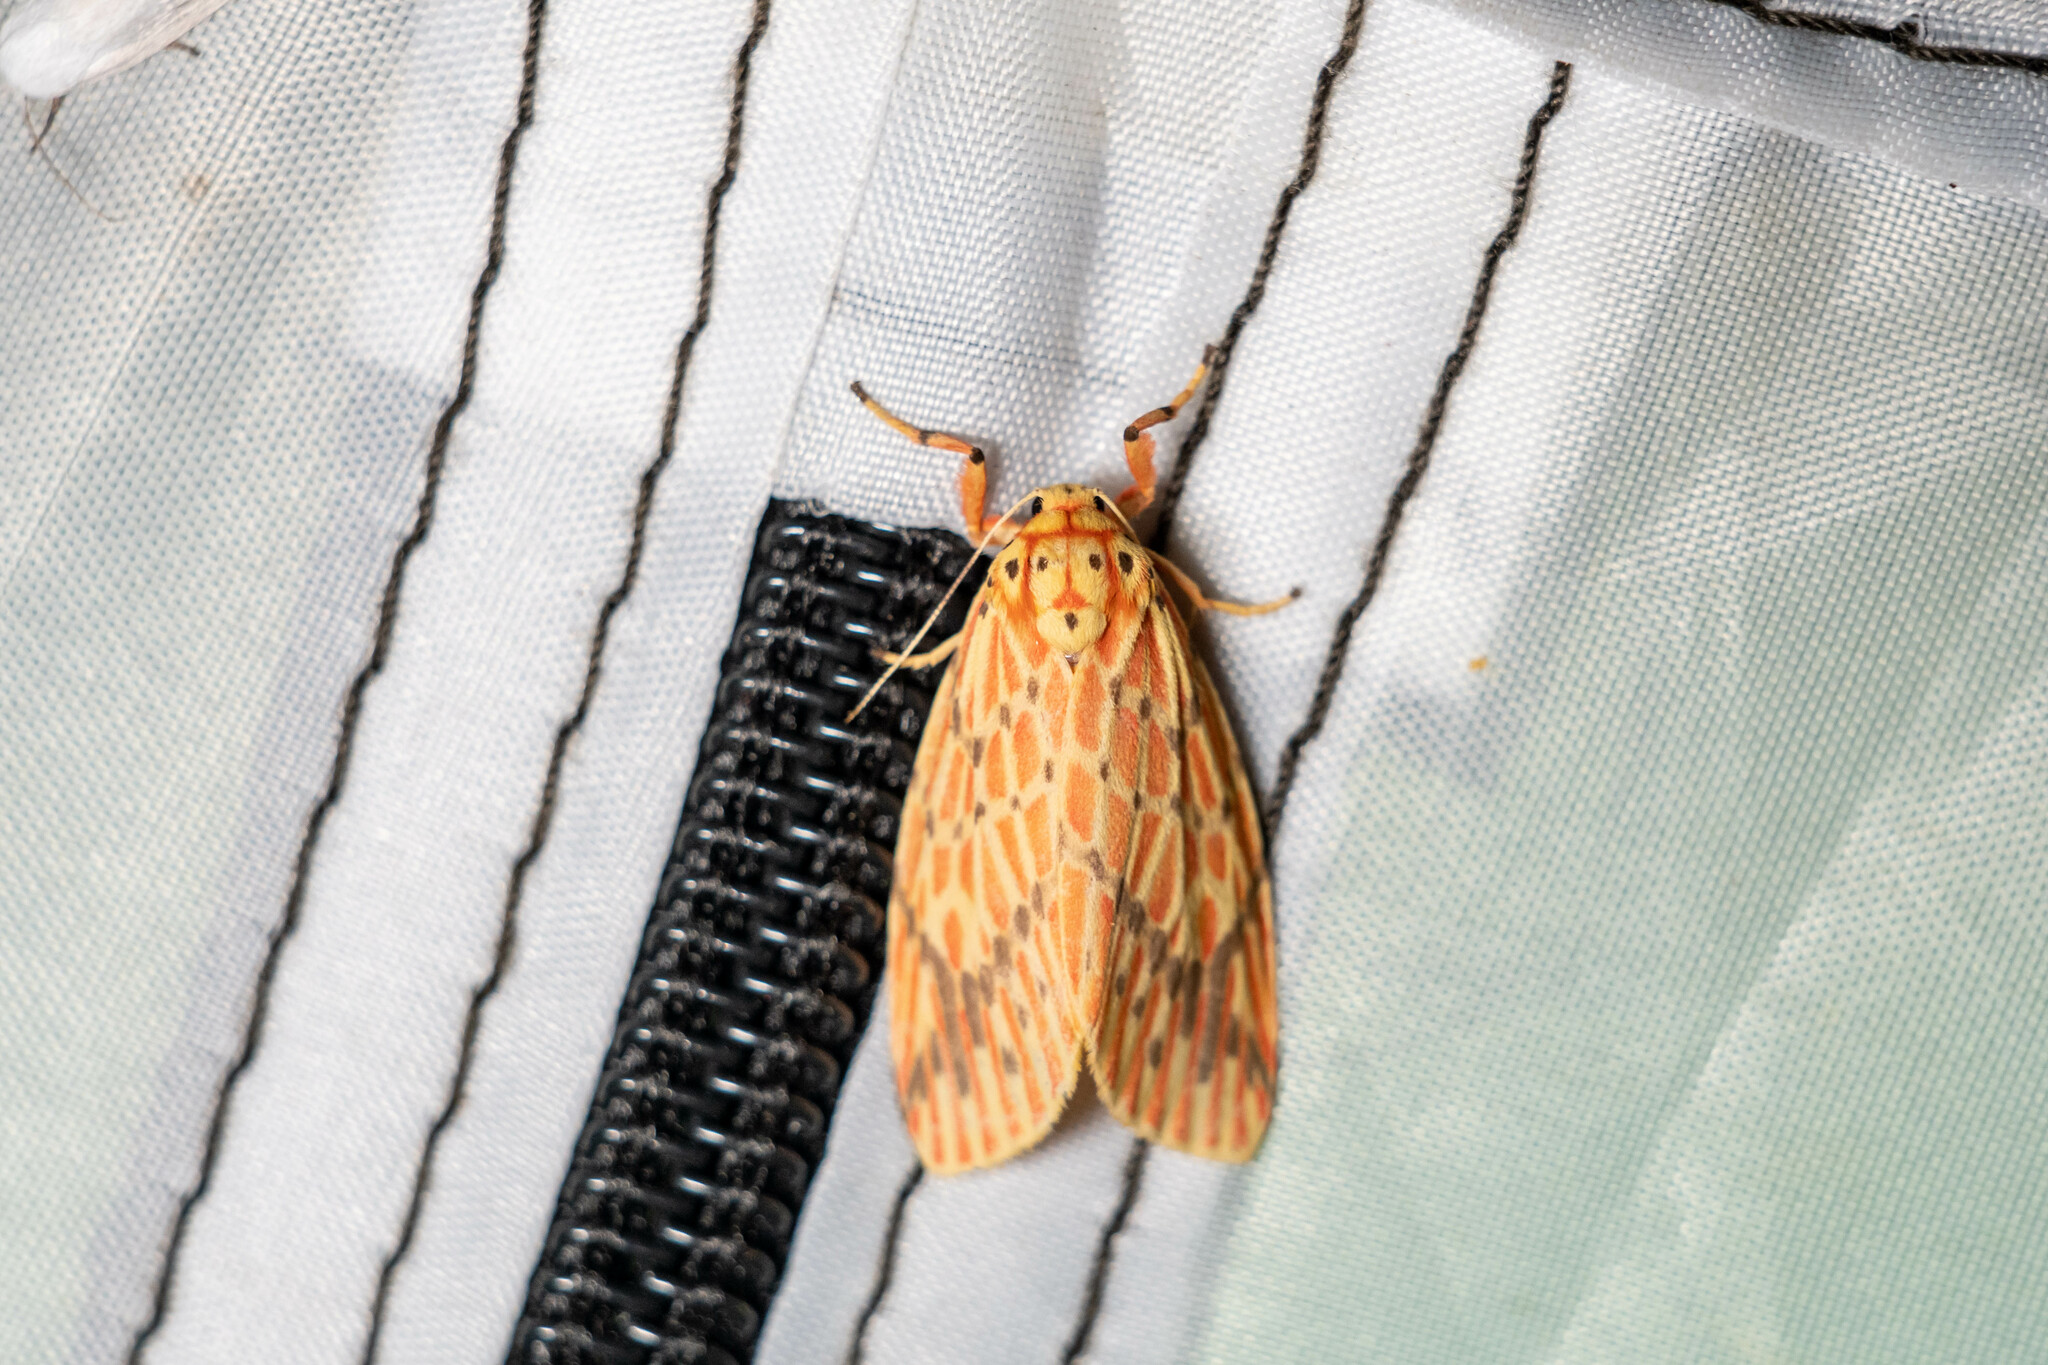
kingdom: Animalia
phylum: Arthropoda
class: Insecta
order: Lepidoptera
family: Erebidae
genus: Barsine
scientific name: Barsine striata
